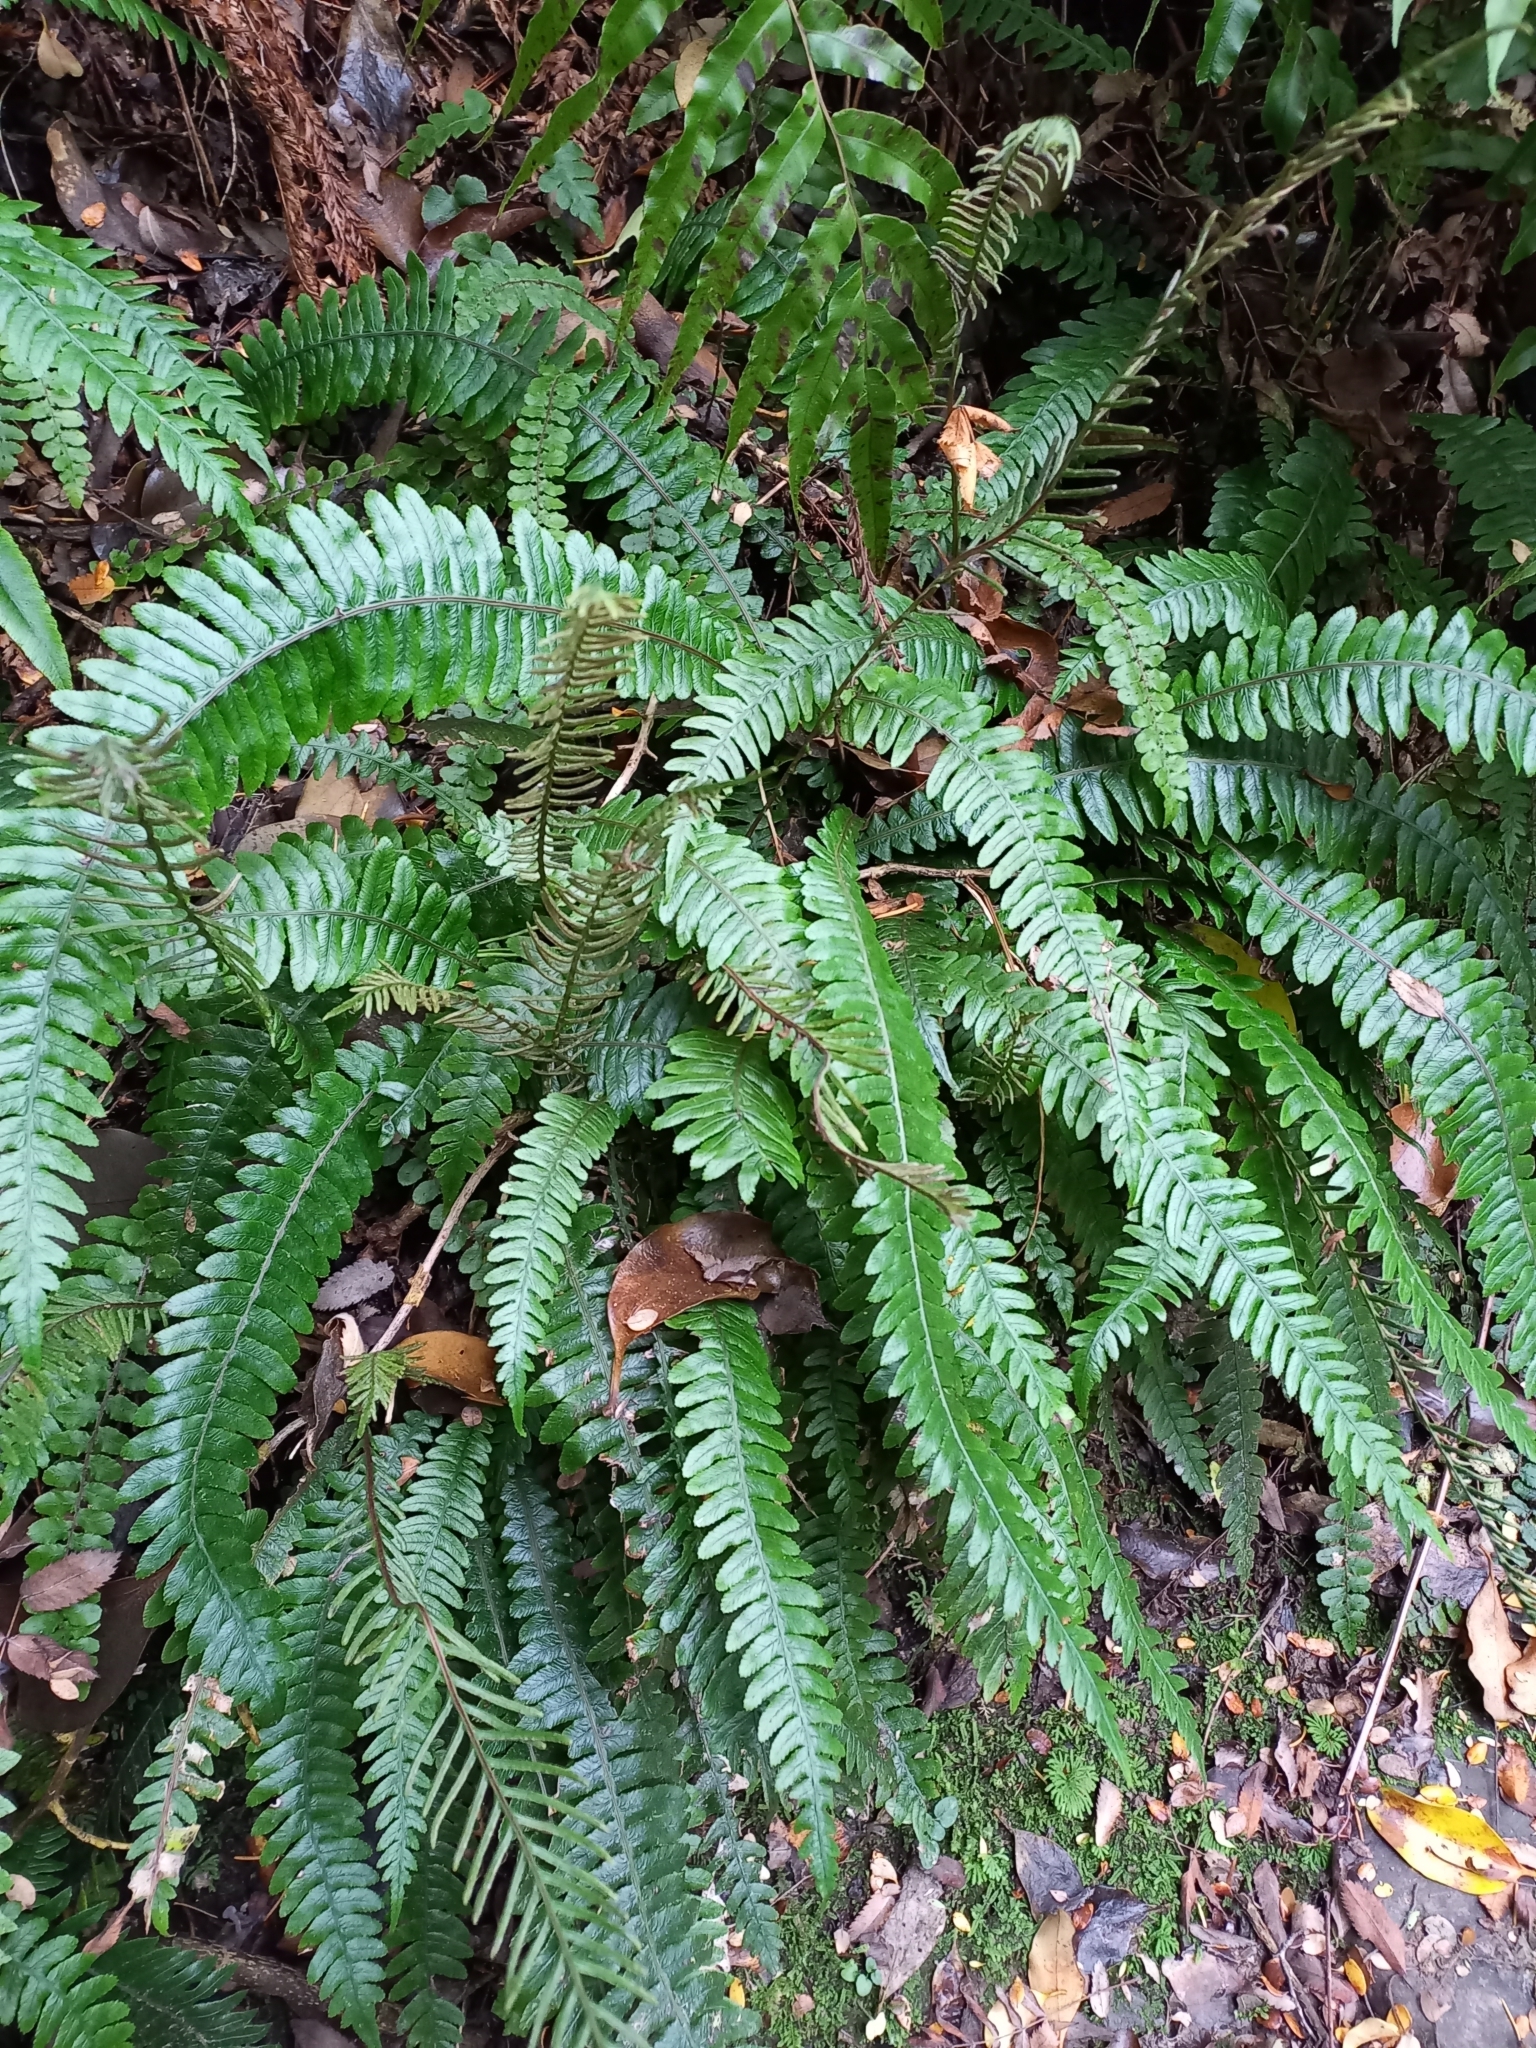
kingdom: Plantae
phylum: Tracheophyta
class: Polypodiopsida
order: Polypodiales
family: Blechnaceae
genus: Austroblechnum
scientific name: Austroblechnum lanceolatum
